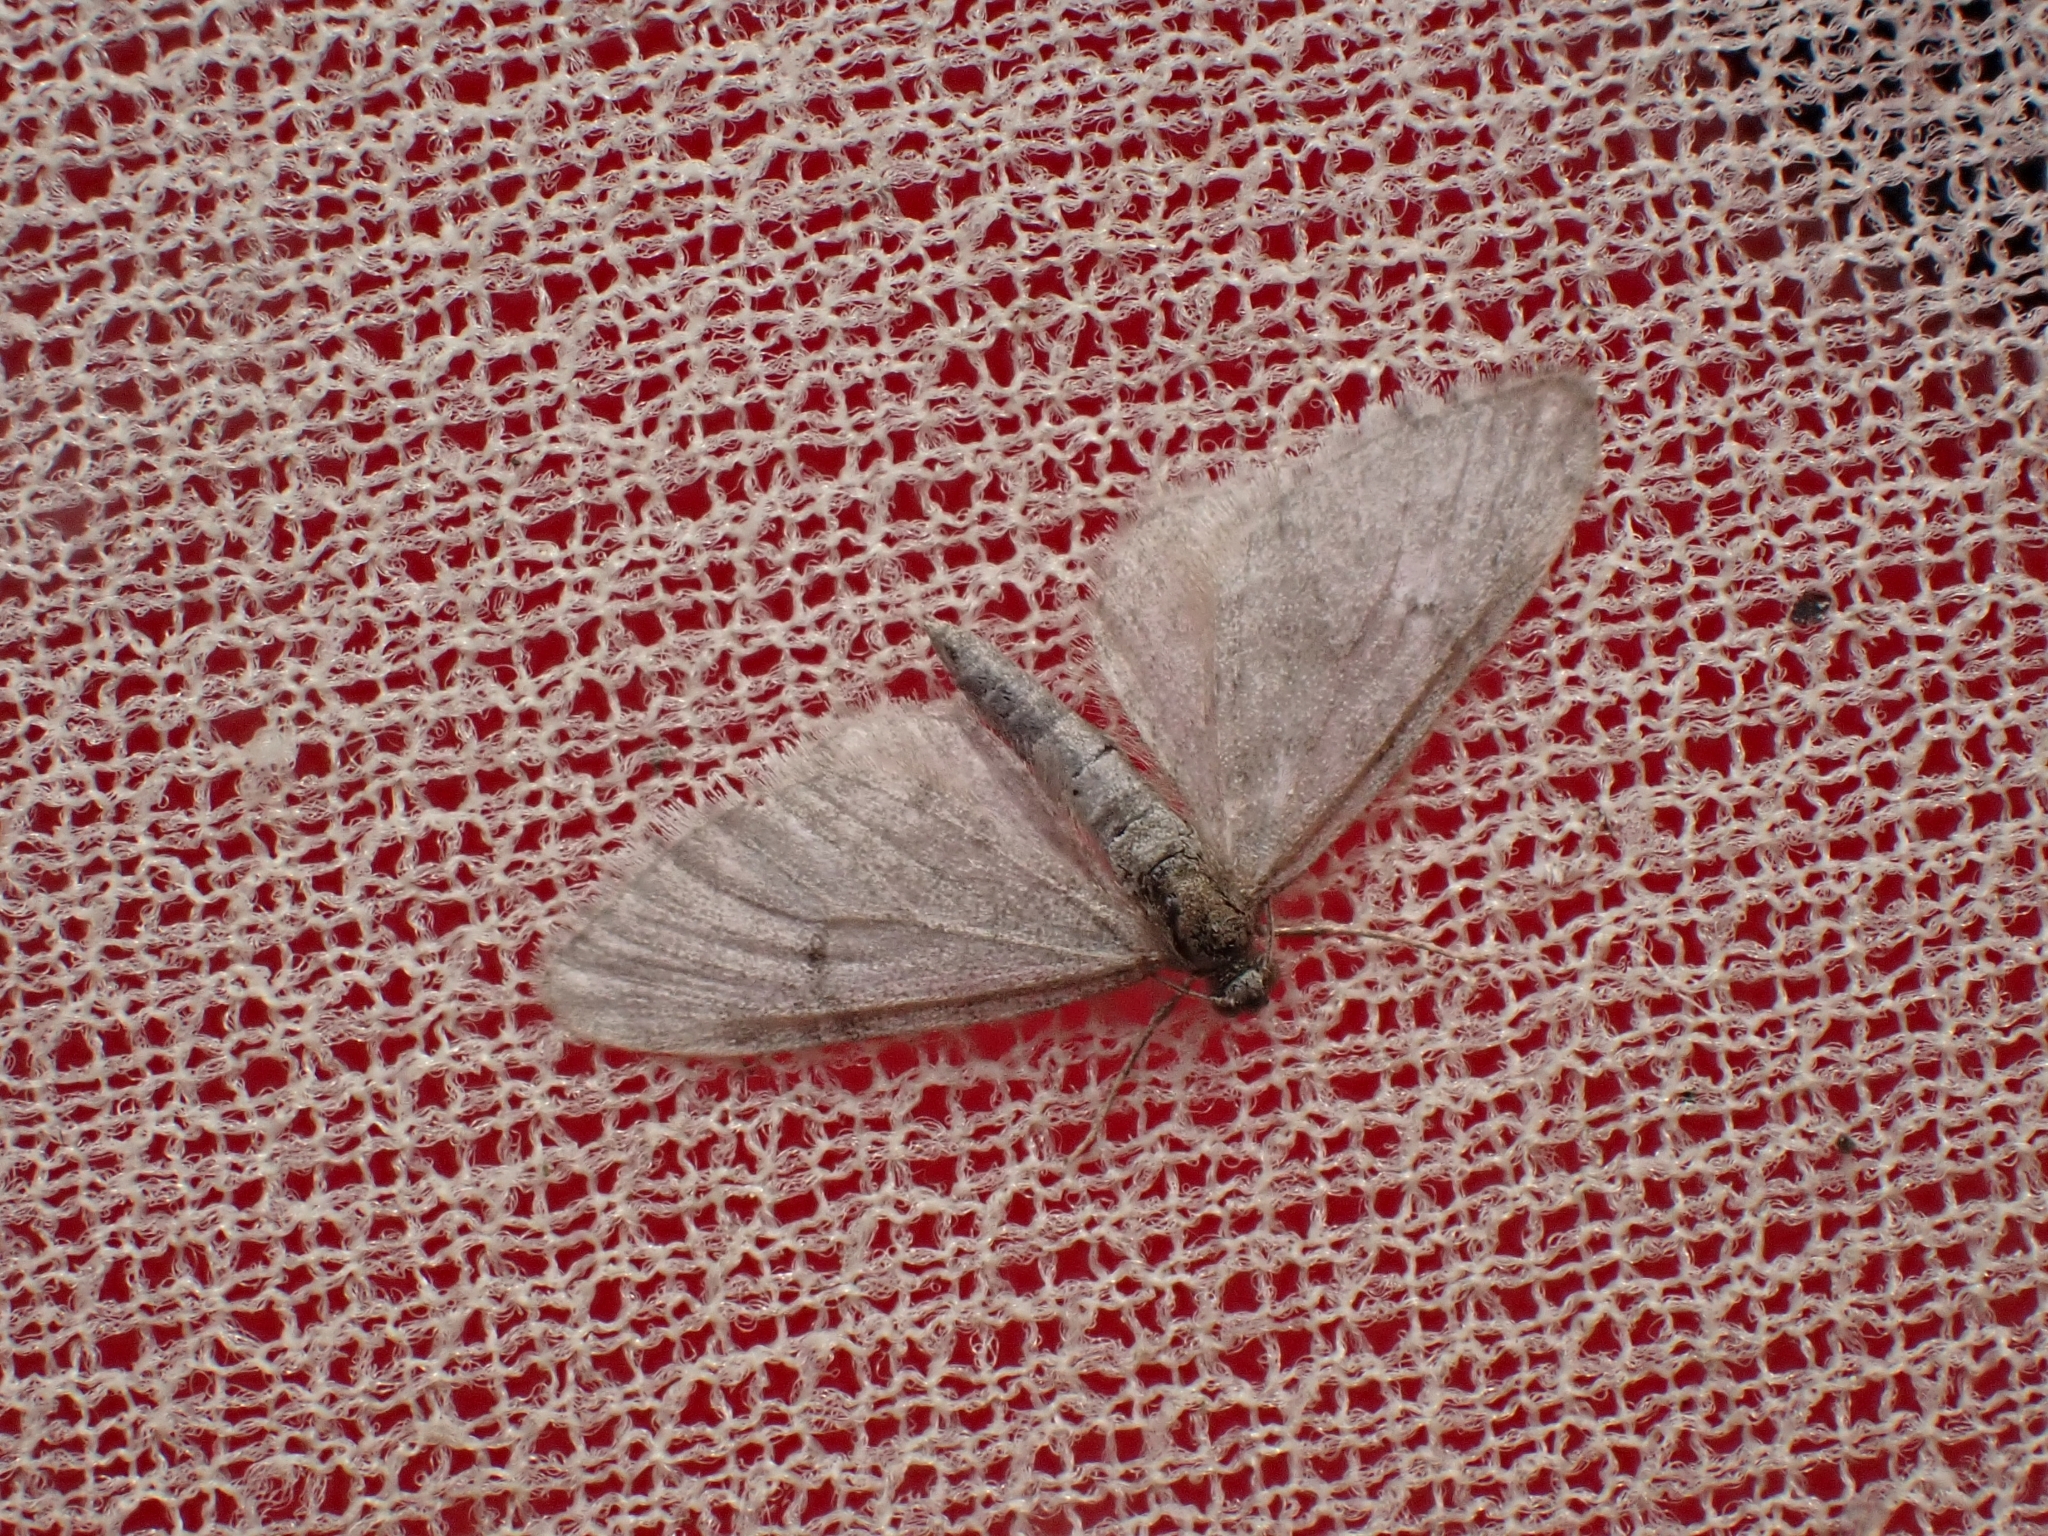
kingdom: Animalia
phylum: Arthropoda
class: Insecta
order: Lepidoptera
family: Geometridae
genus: Eupithecia
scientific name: Eupithecia indigata
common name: Ochreous pug
